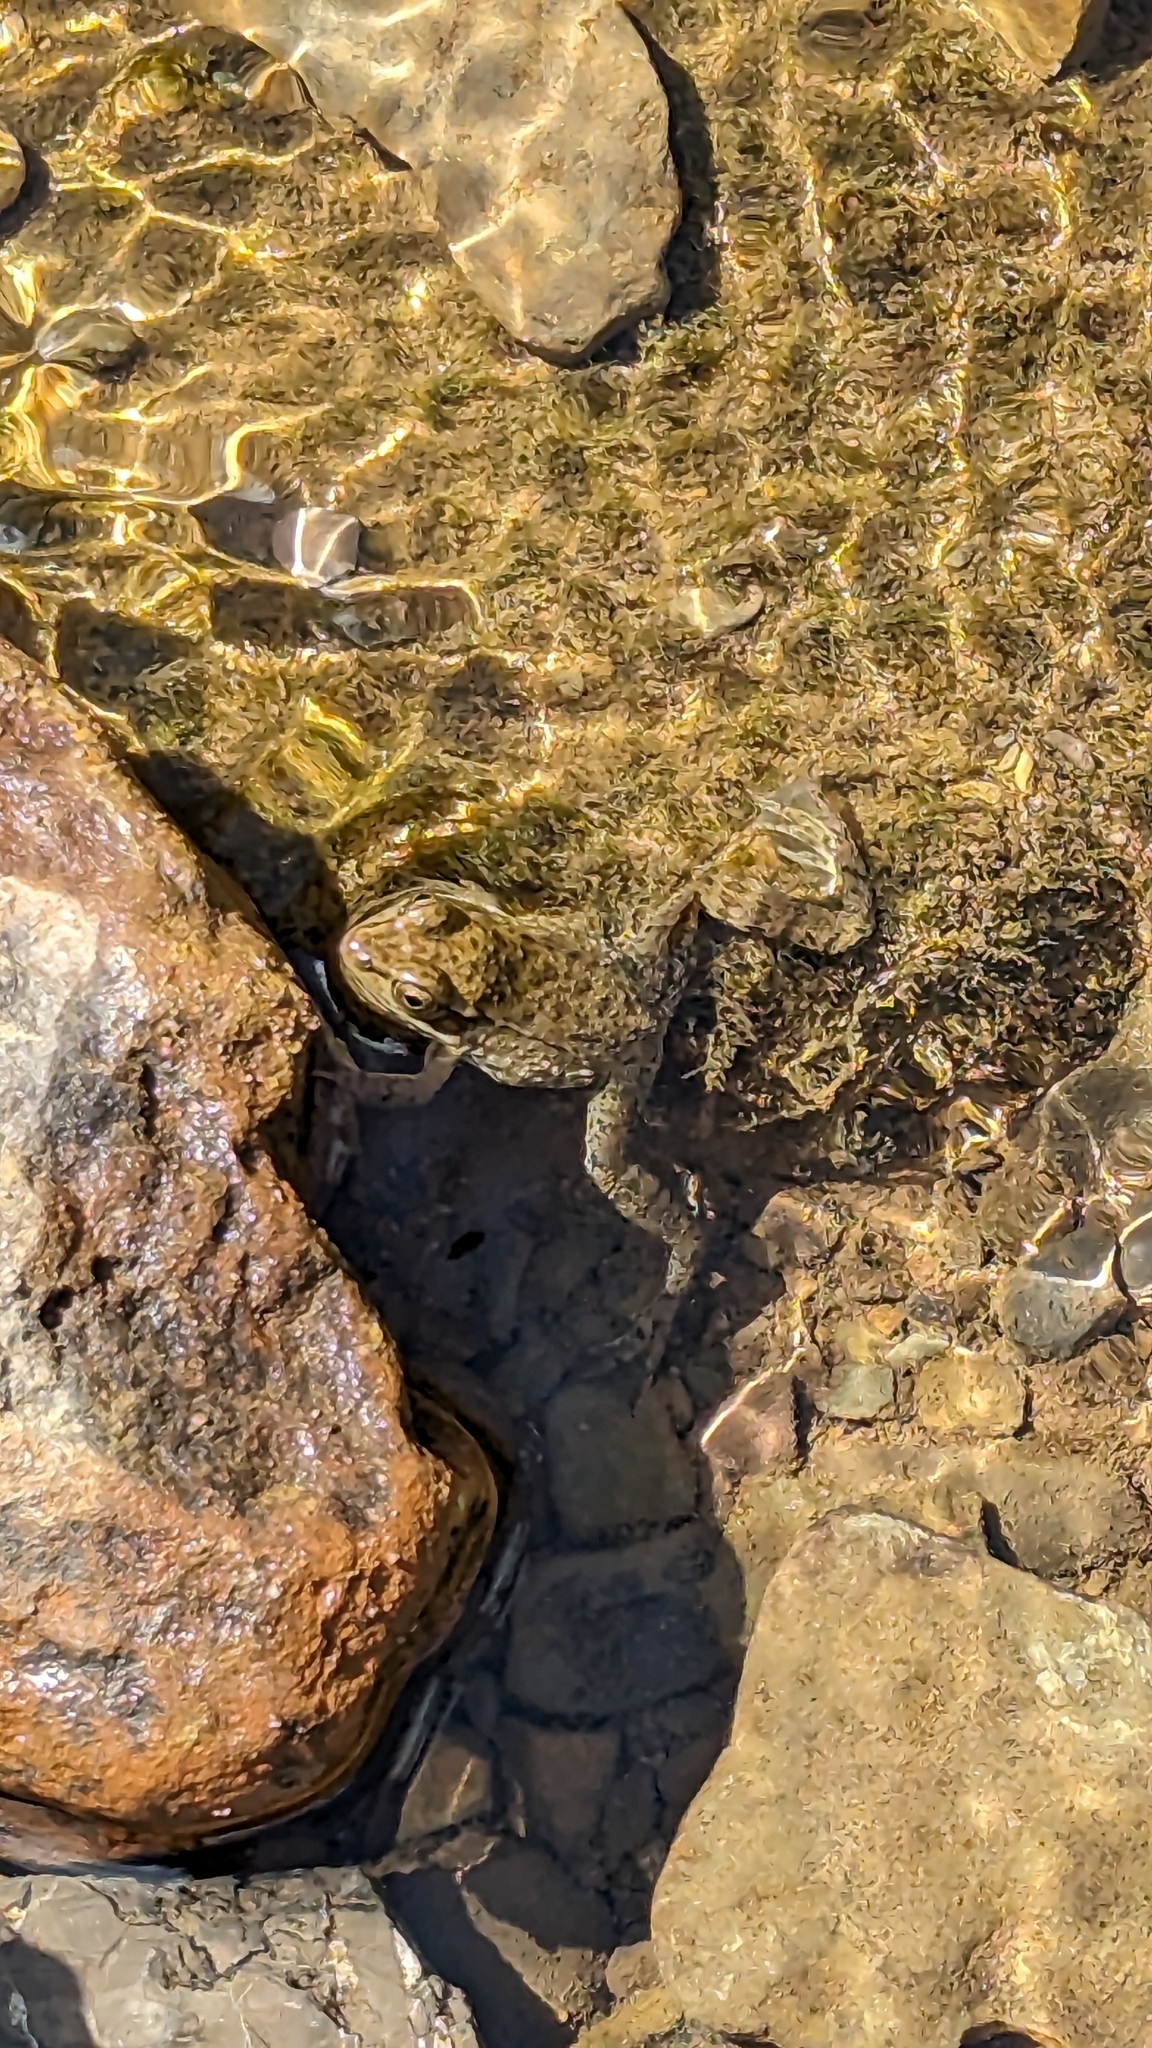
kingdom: Animalia
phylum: Chordata
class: Amphibia
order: Anura
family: Ranidae
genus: Lithobates
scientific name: Lithobates clamitans
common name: Green frog
